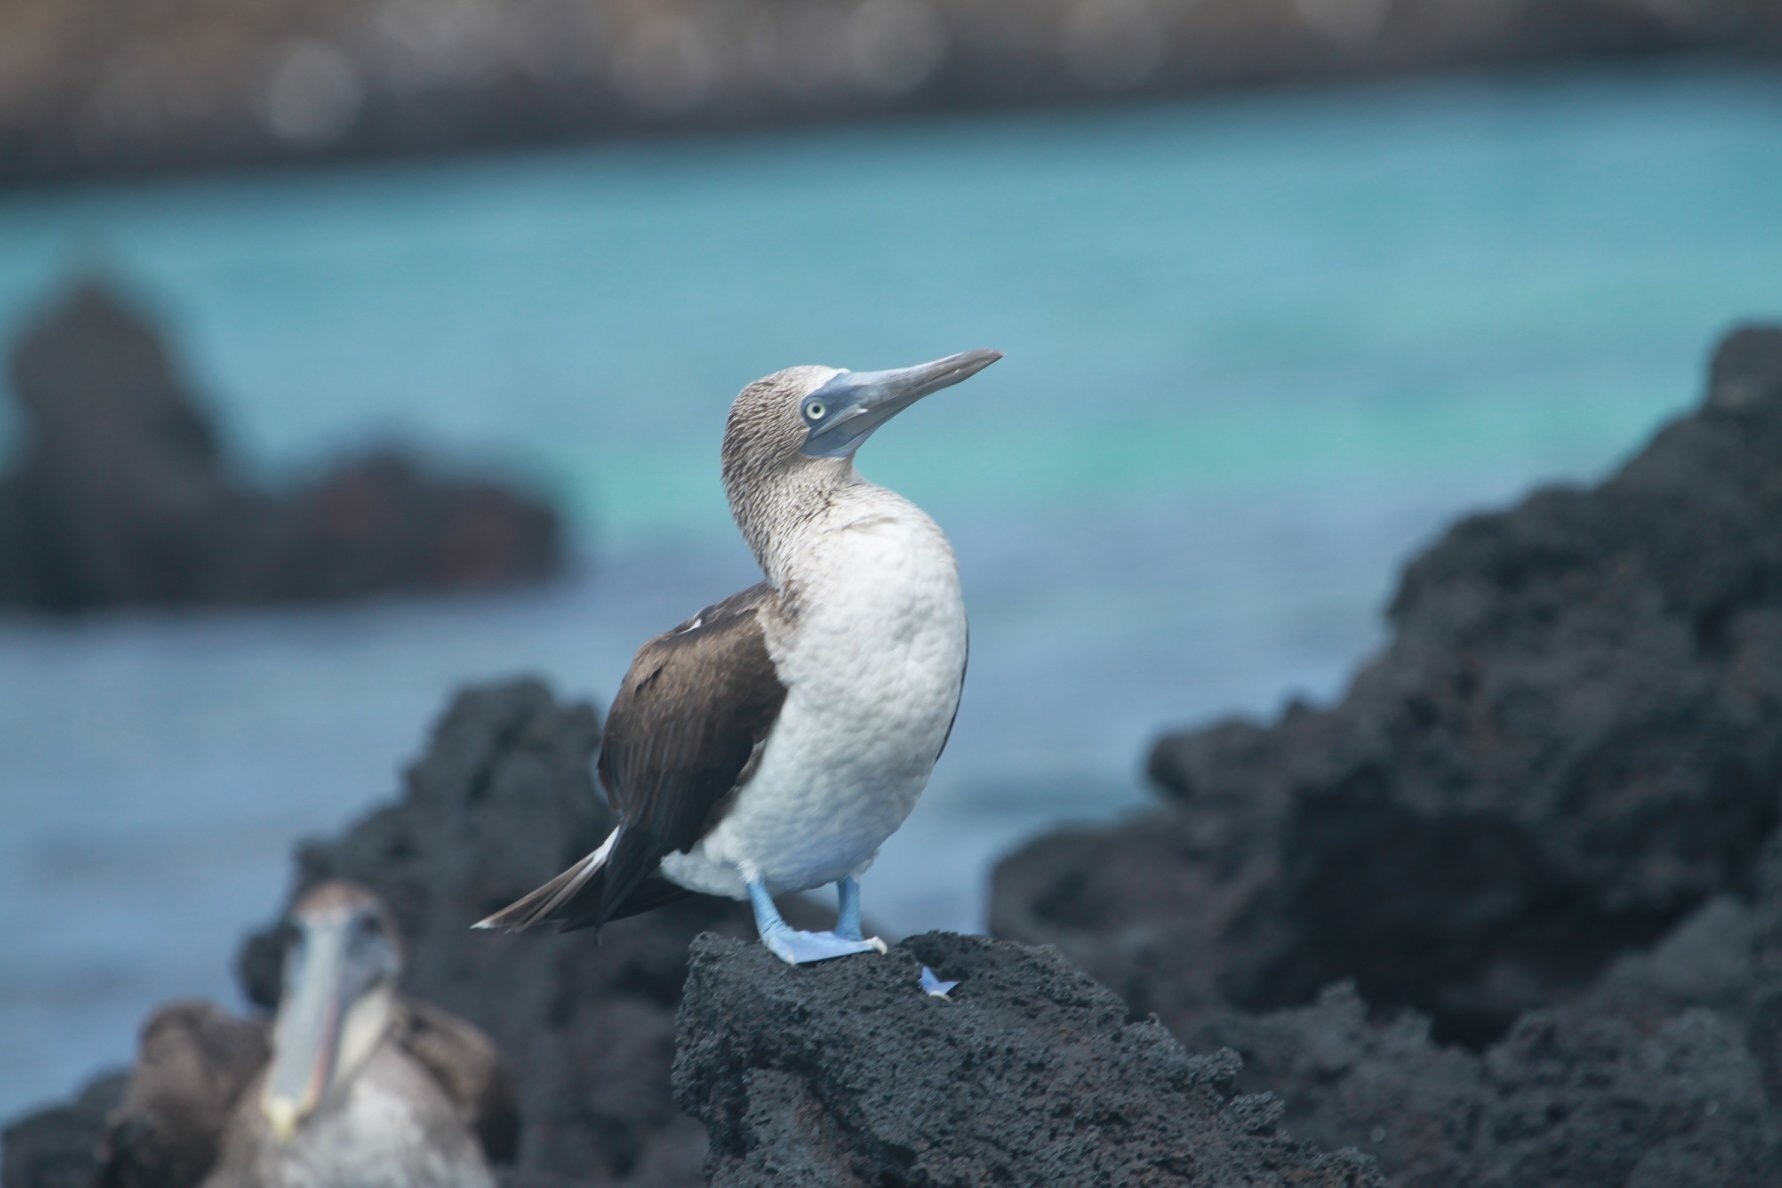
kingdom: Animalia
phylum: Chordata
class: Aves
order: Suliformes
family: Sulidae
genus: Sula
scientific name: Sula nebouxii
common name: Blue-footed booby
